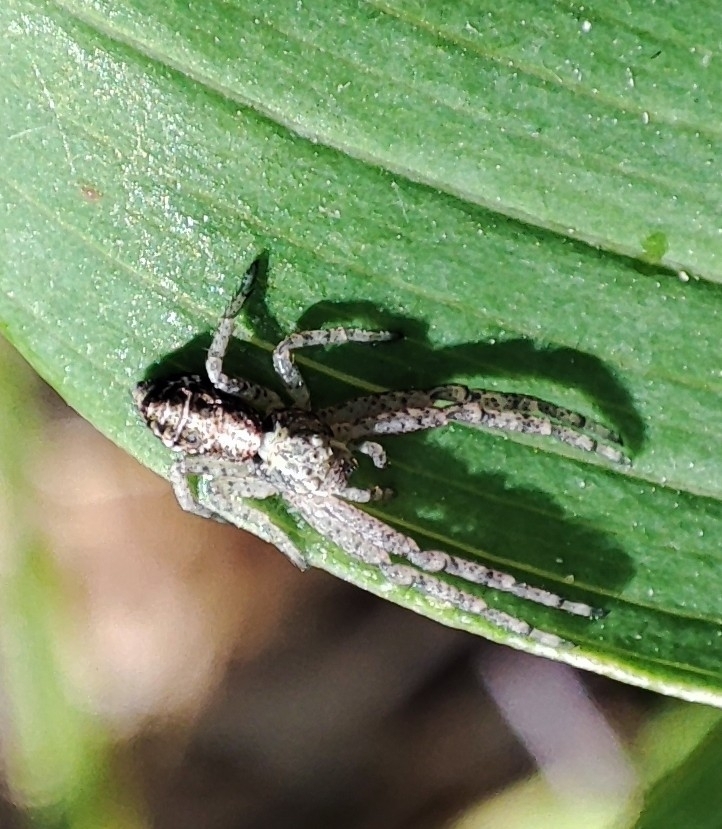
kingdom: Animalia
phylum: Arthropoda
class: Arachnida
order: Araneae
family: Thomisidae
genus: Tmarus
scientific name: Tmarus
